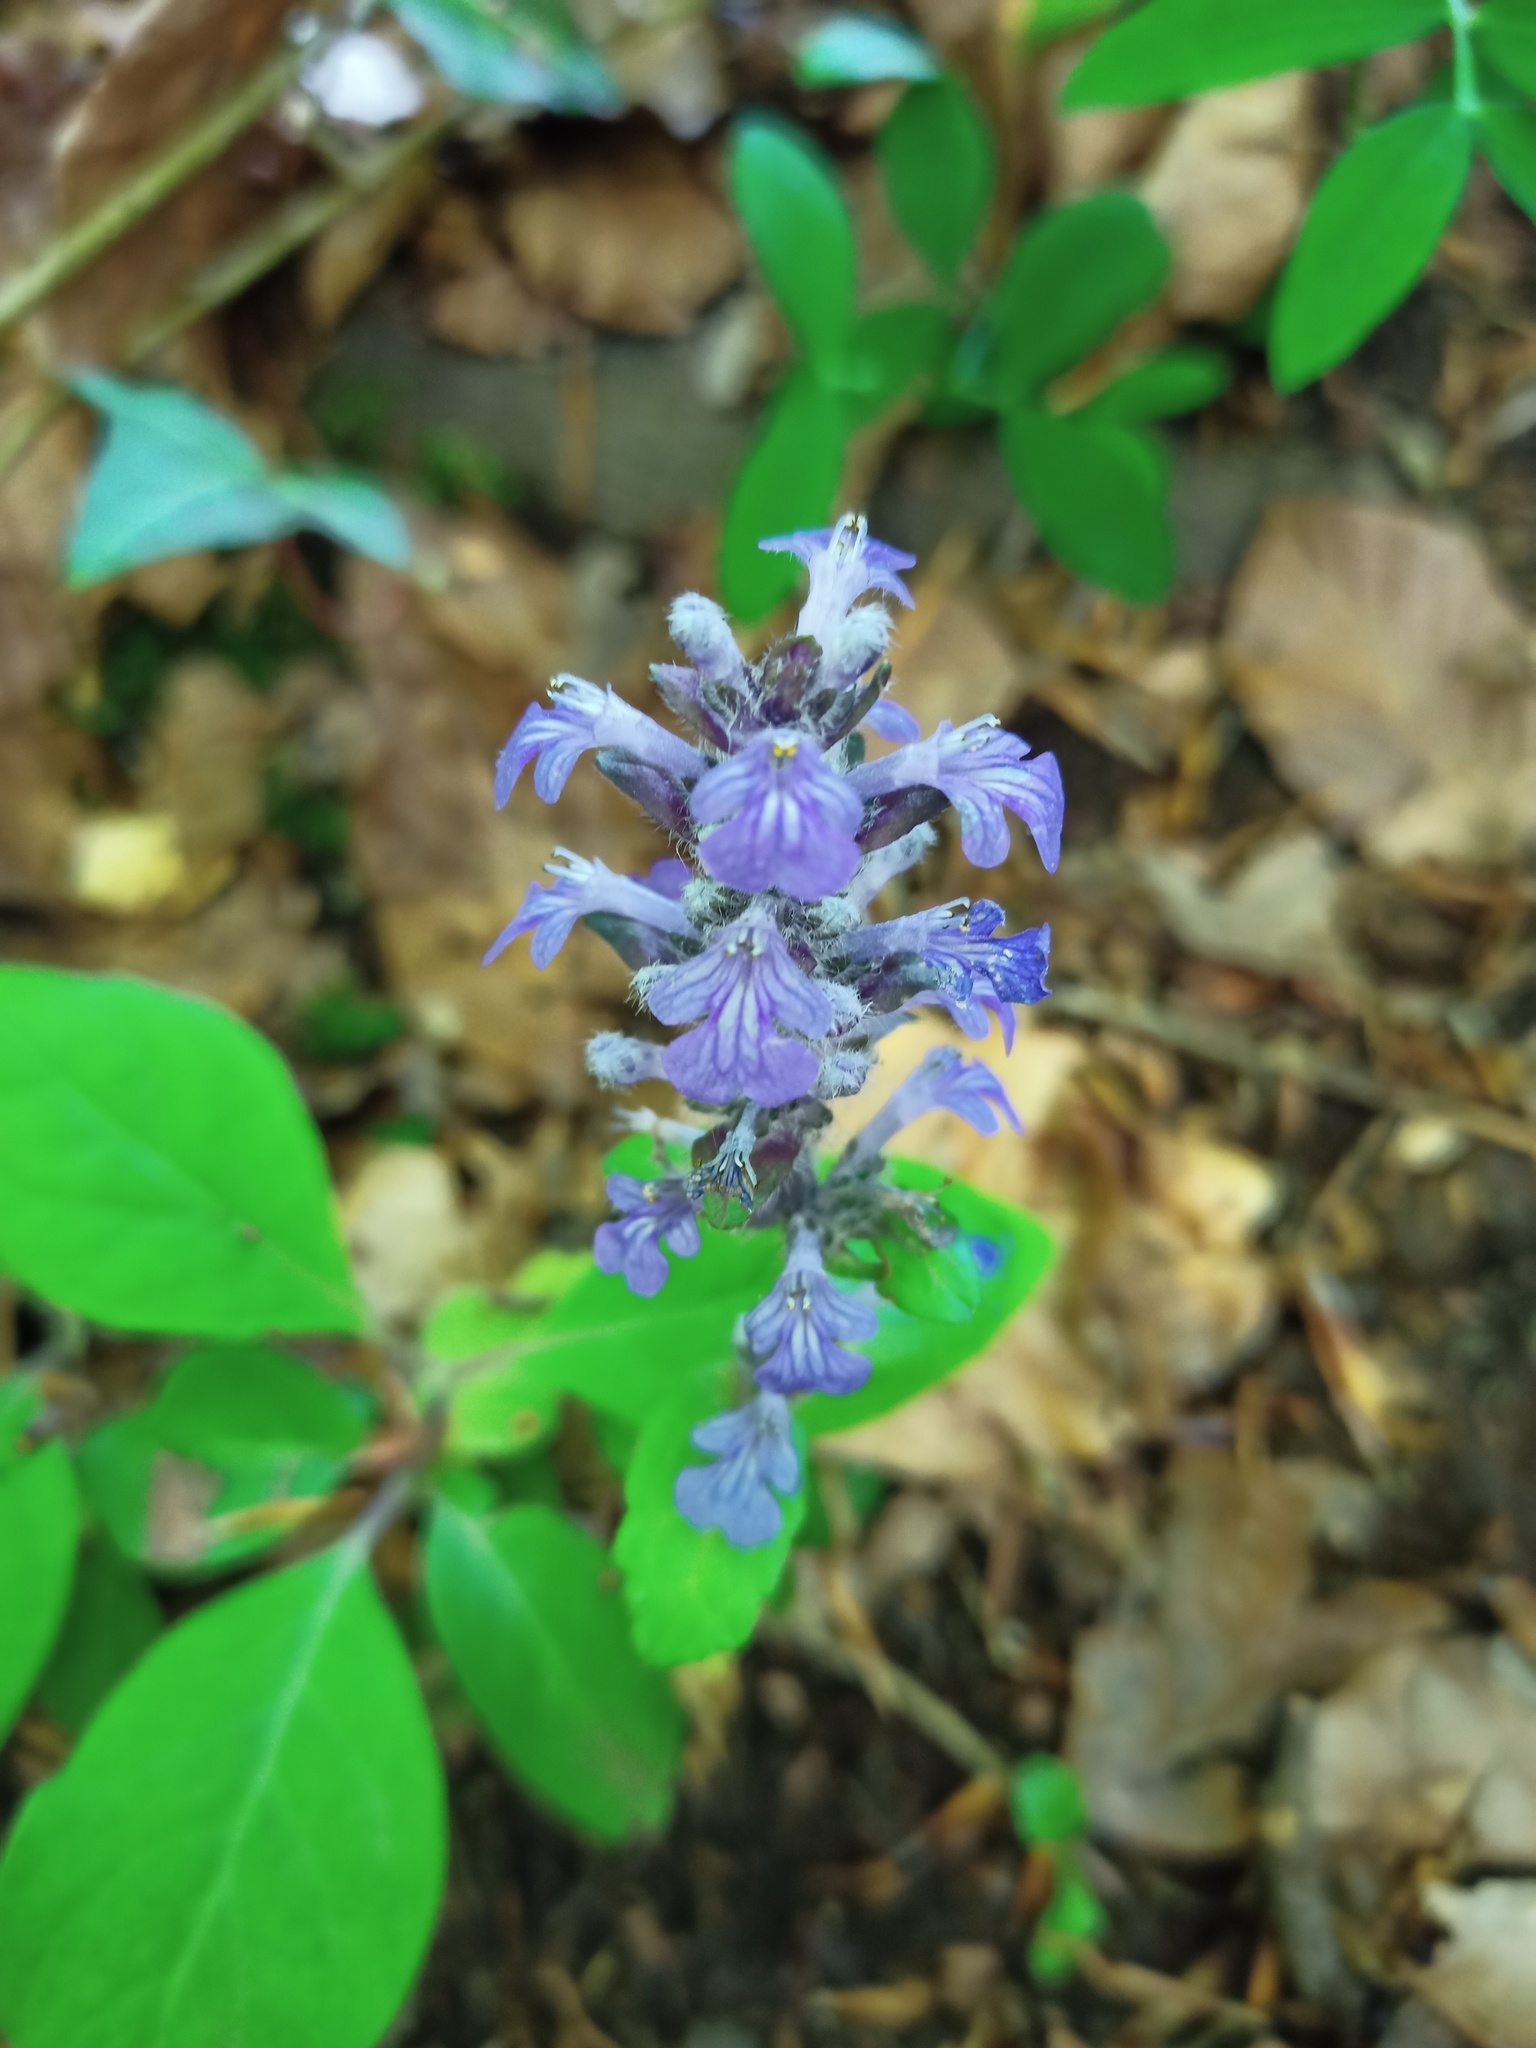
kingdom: Plantae
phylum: Tracheophyta
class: Magnoliopsida
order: Lamiales
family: Lamiaceae
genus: Ajuga
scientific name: Ajuga reptans
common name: Bugle
